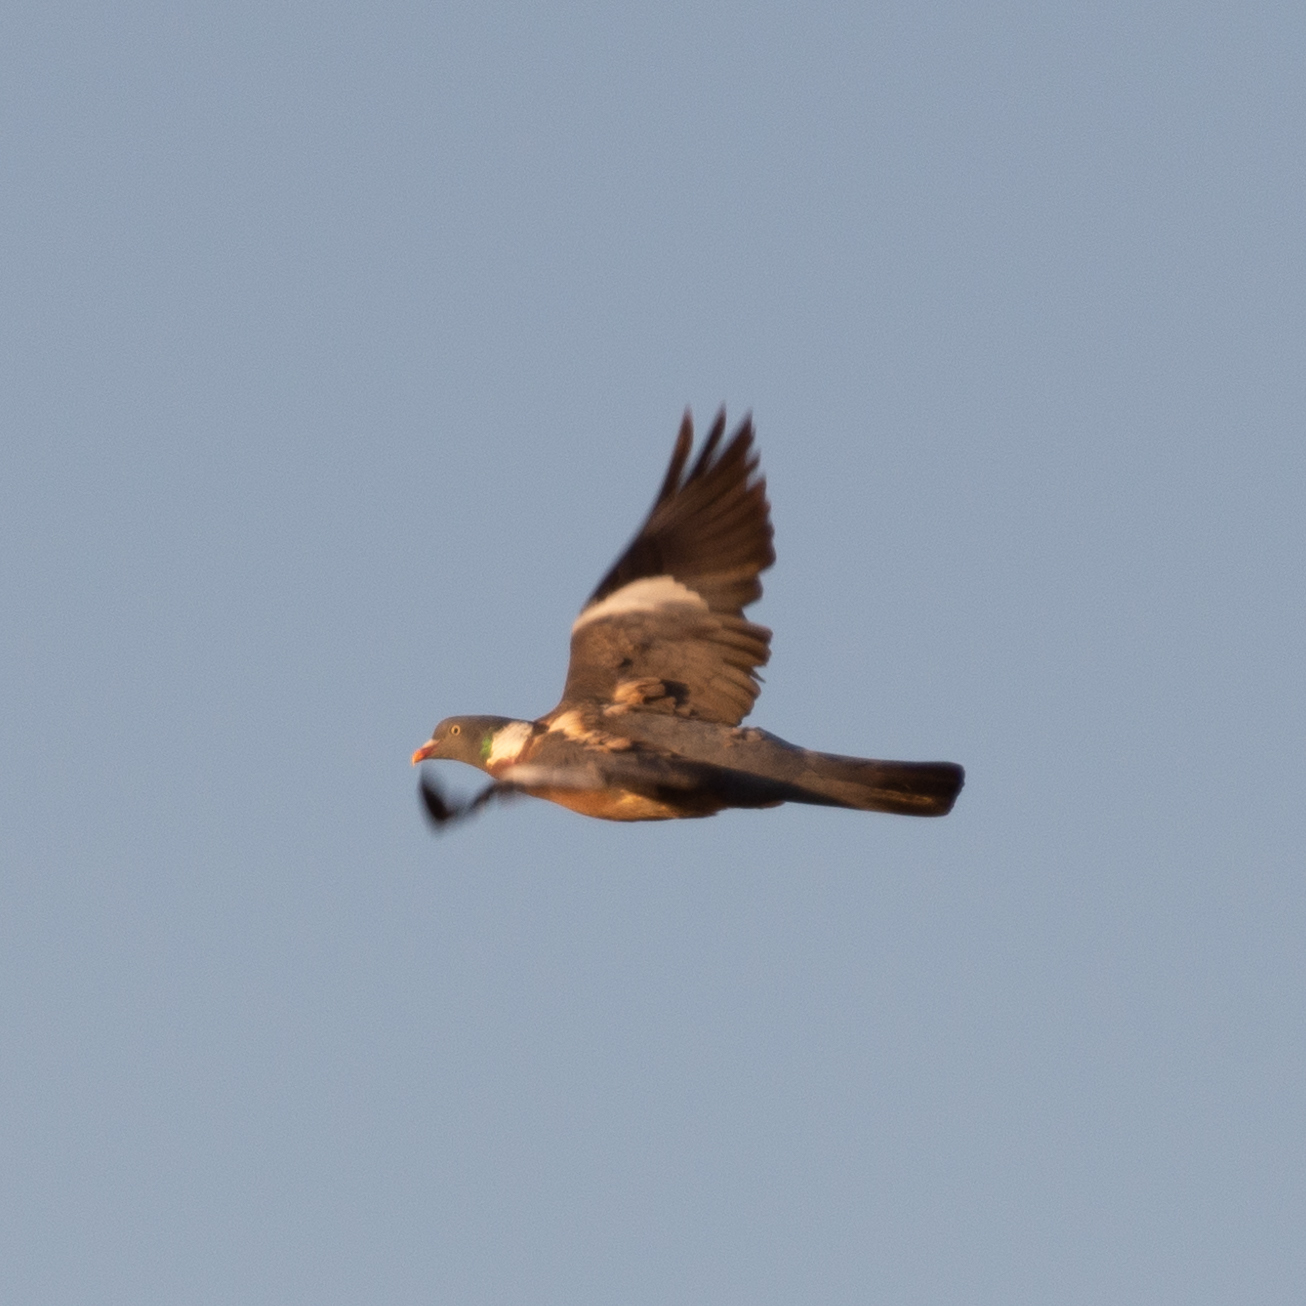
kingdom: Animalia
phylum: Chordata
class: Aves
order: Columbiformes
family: Columbidae
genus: Columba
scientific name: Columba palumbus
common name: Common wood pigeon
